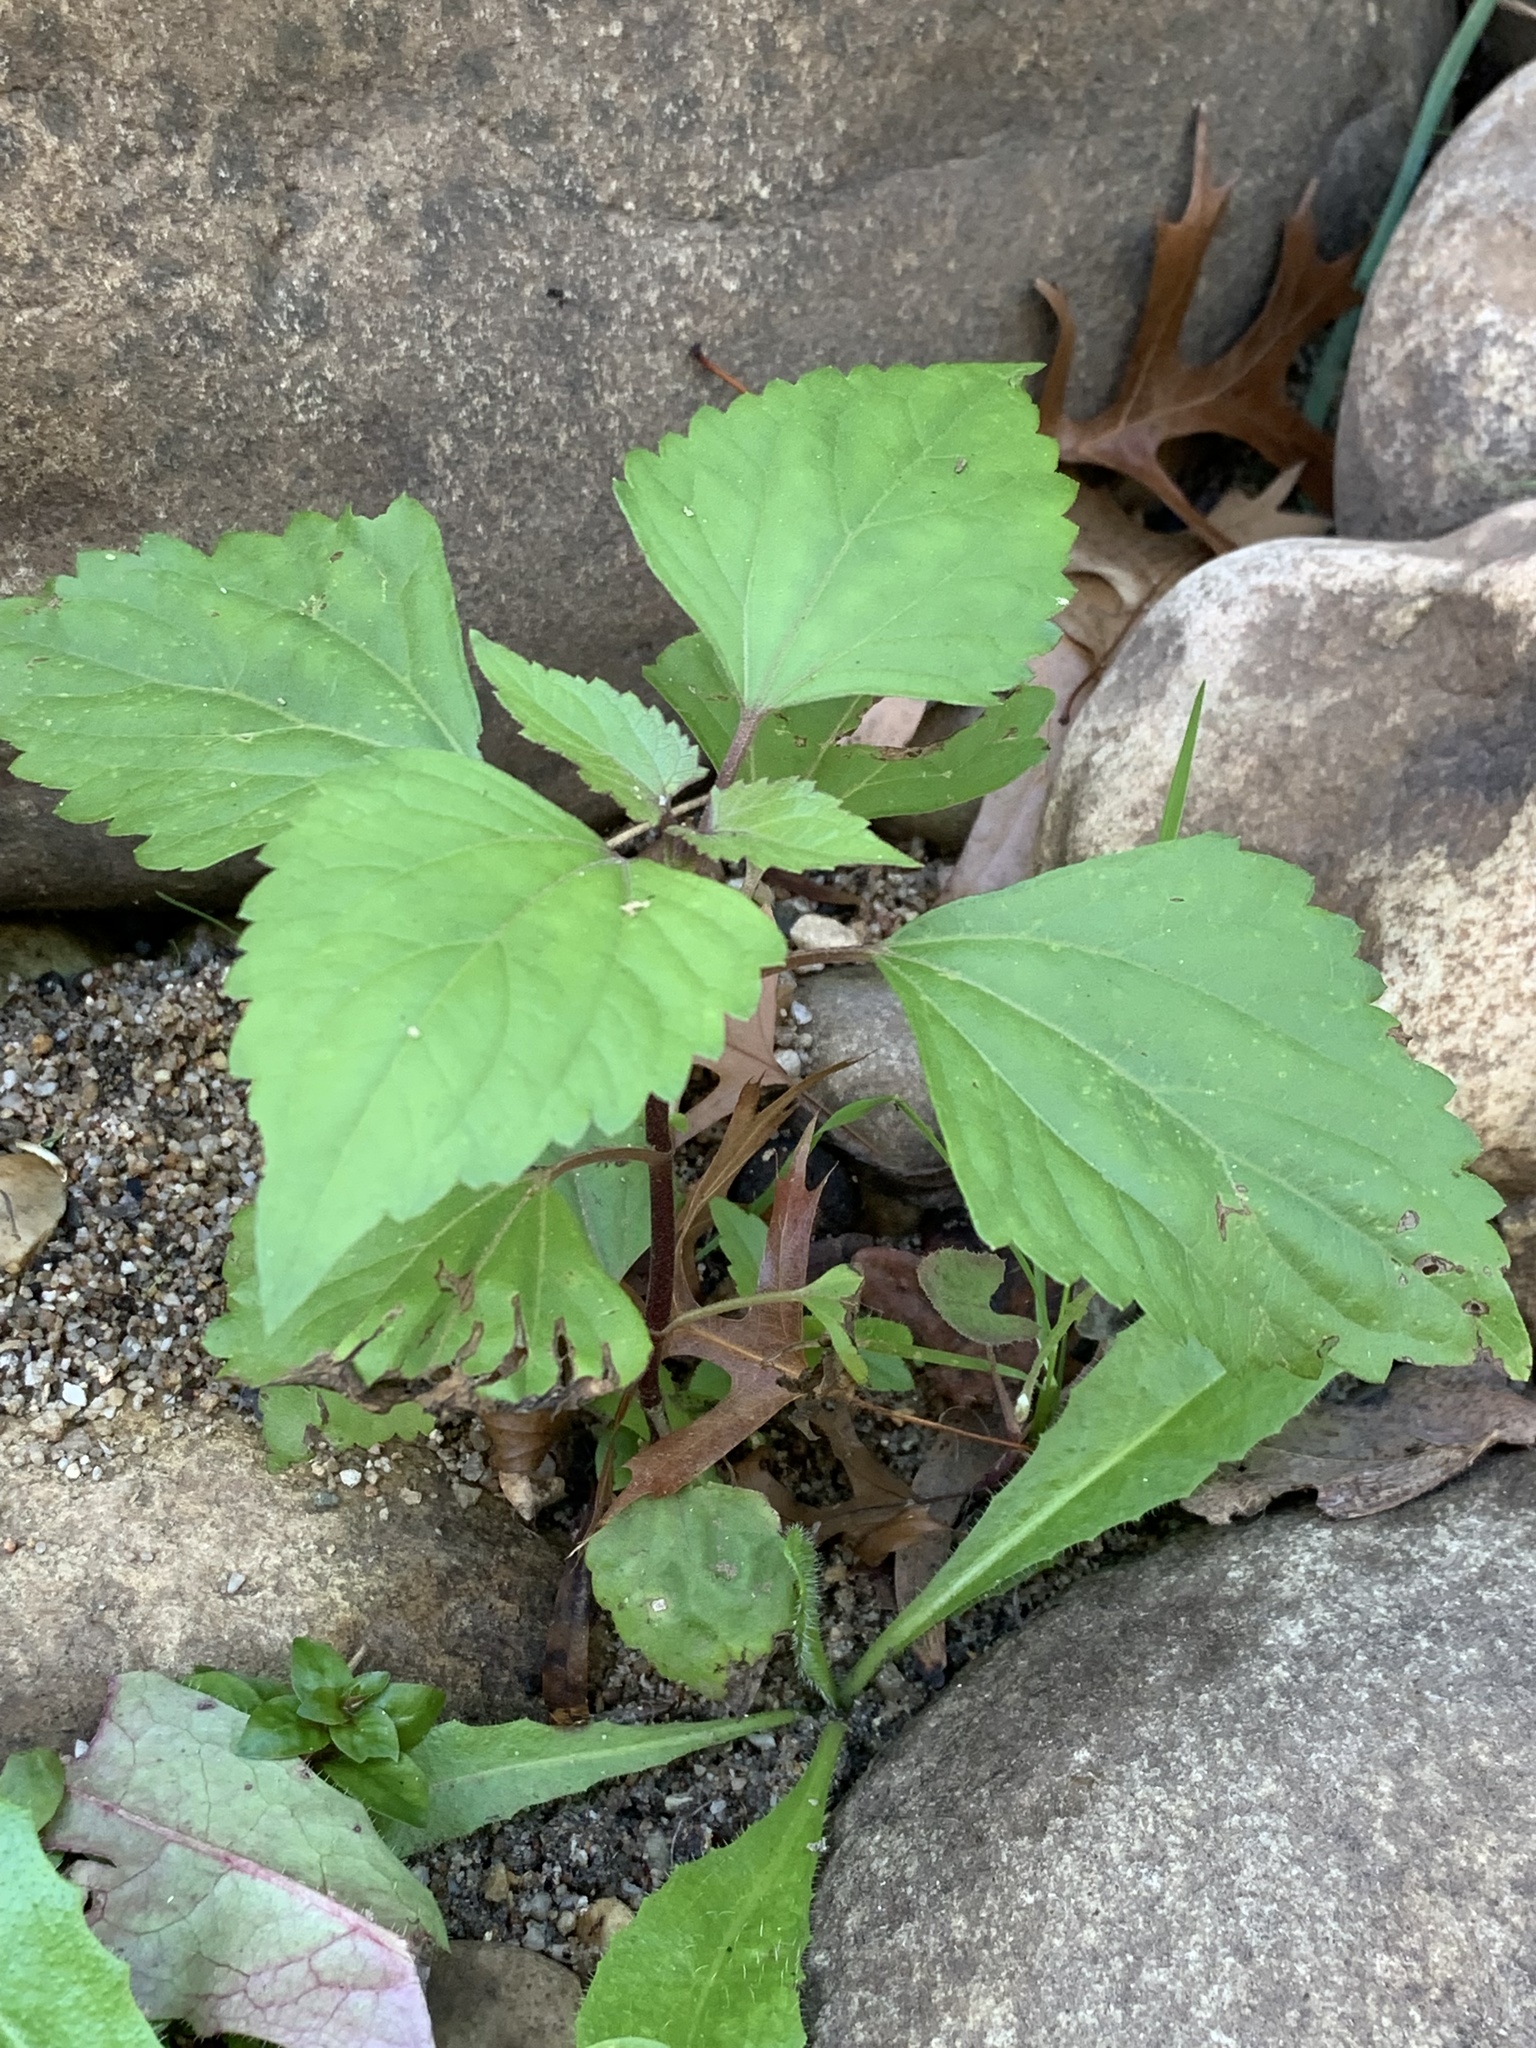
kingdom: Plantae
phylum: Tracheophyta
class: Magnoliopsida
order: Asterales
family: Asteraceae
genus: Ageratina
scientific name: Ageratina adenophora
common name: Sticky snakeroot
